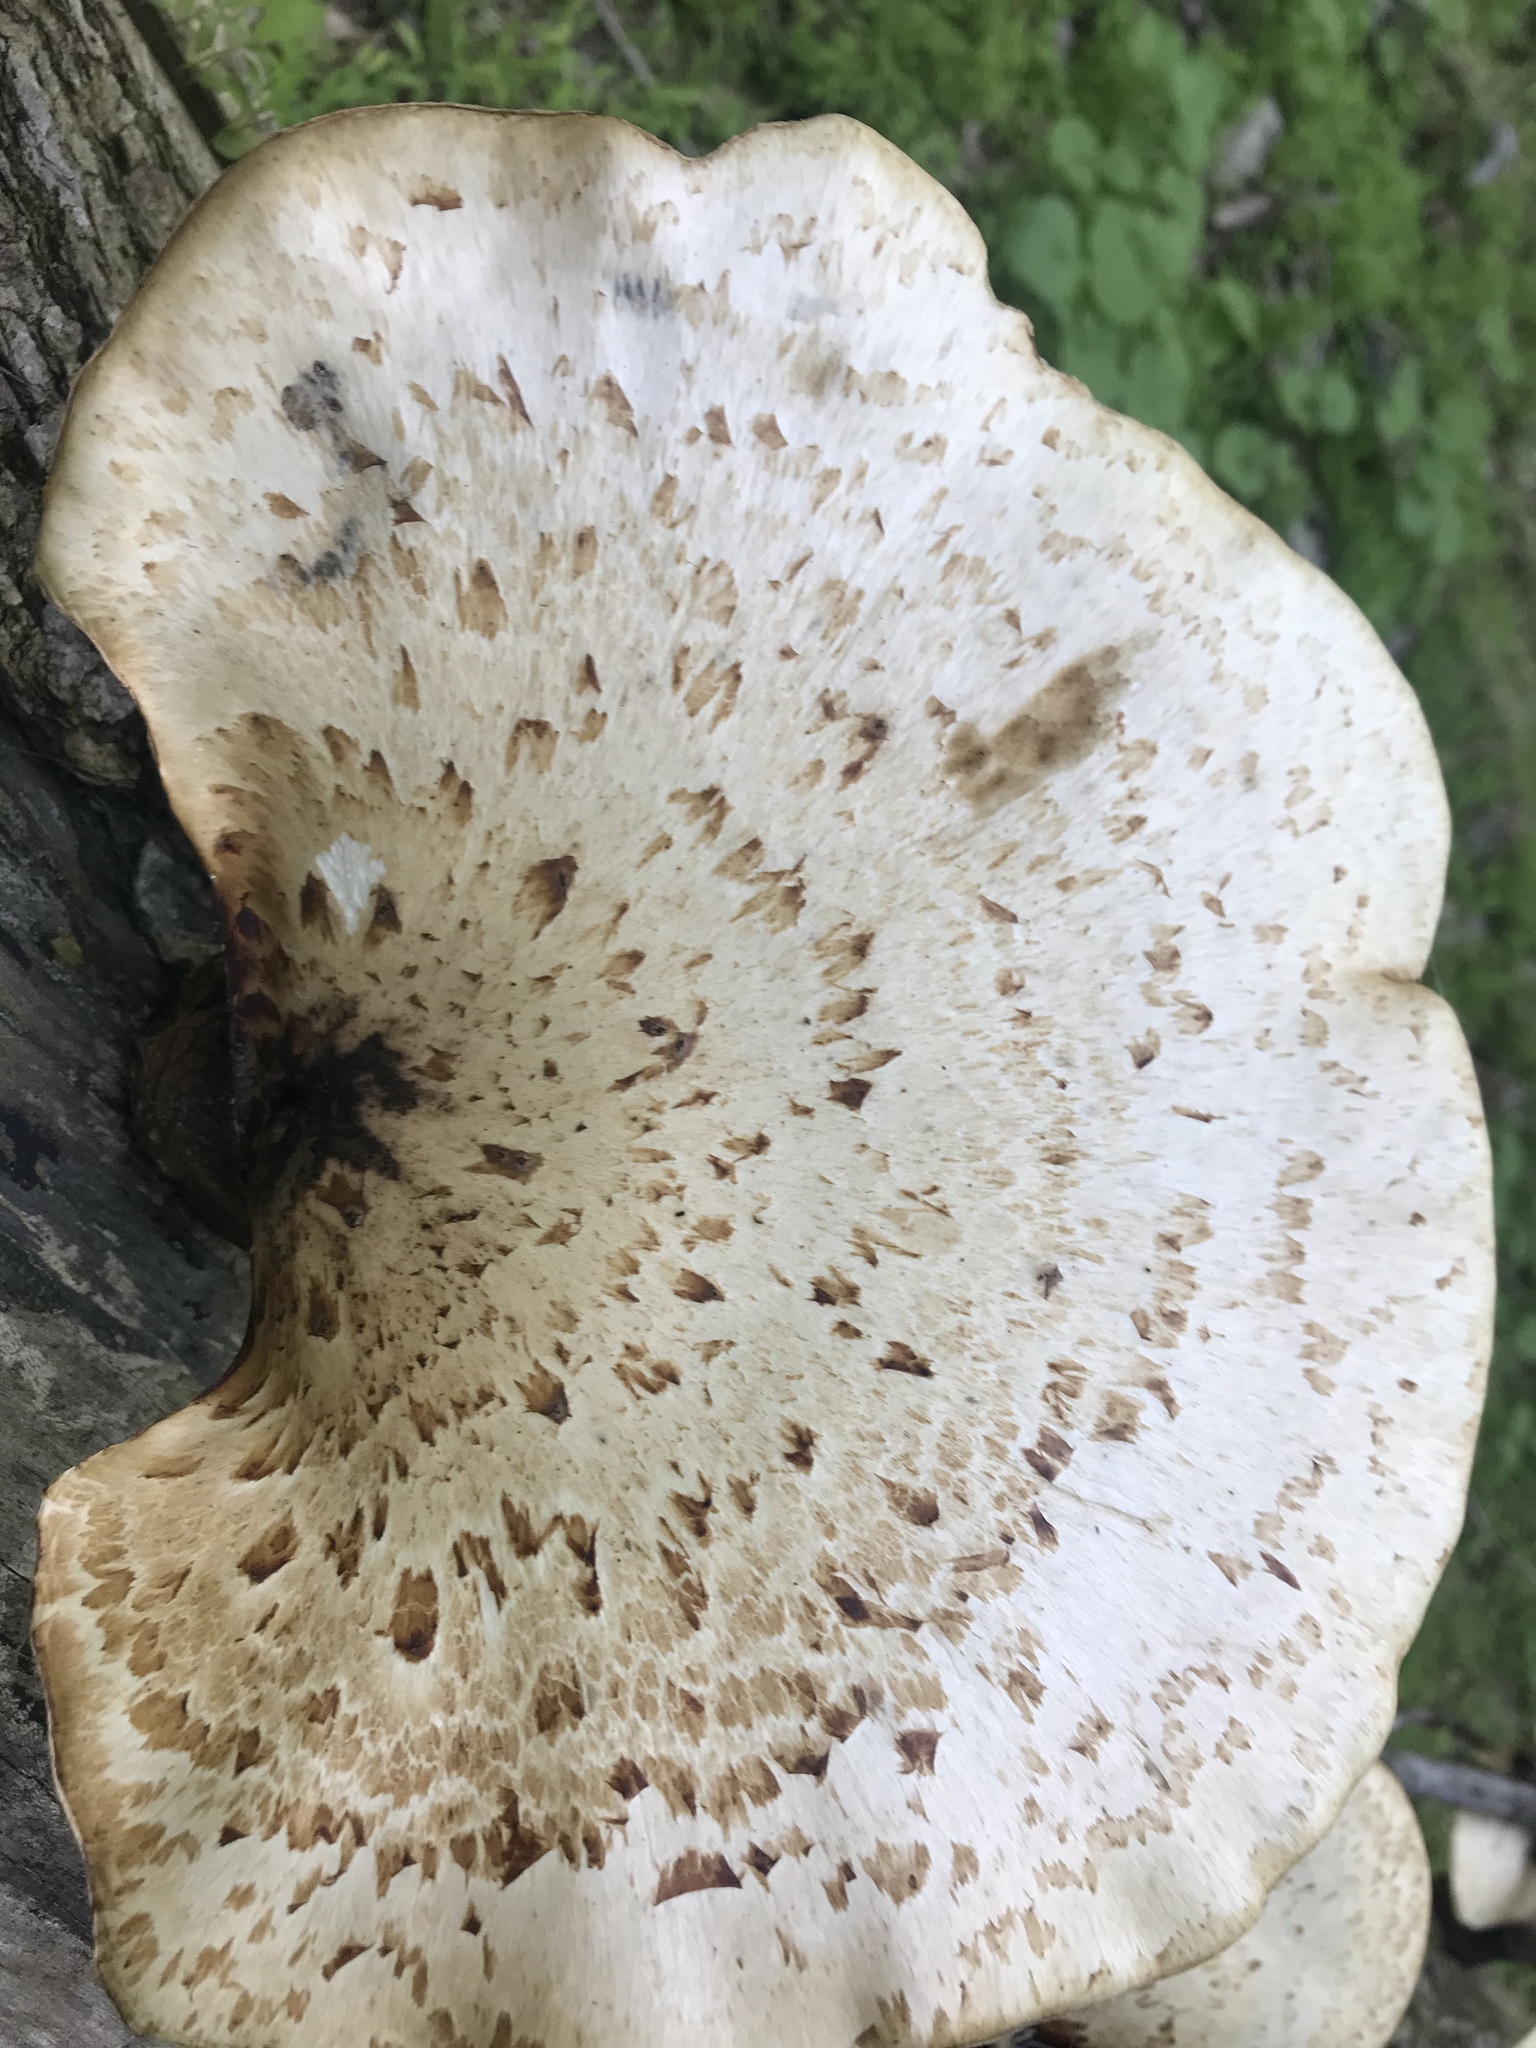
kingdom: Fungi
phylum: Basidiomycota
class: Agaricomycetes
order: Polyporales
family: Polyporaceae
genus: Cerioporus
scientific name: Cerioporus squamosus
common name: Dryad's saddle
